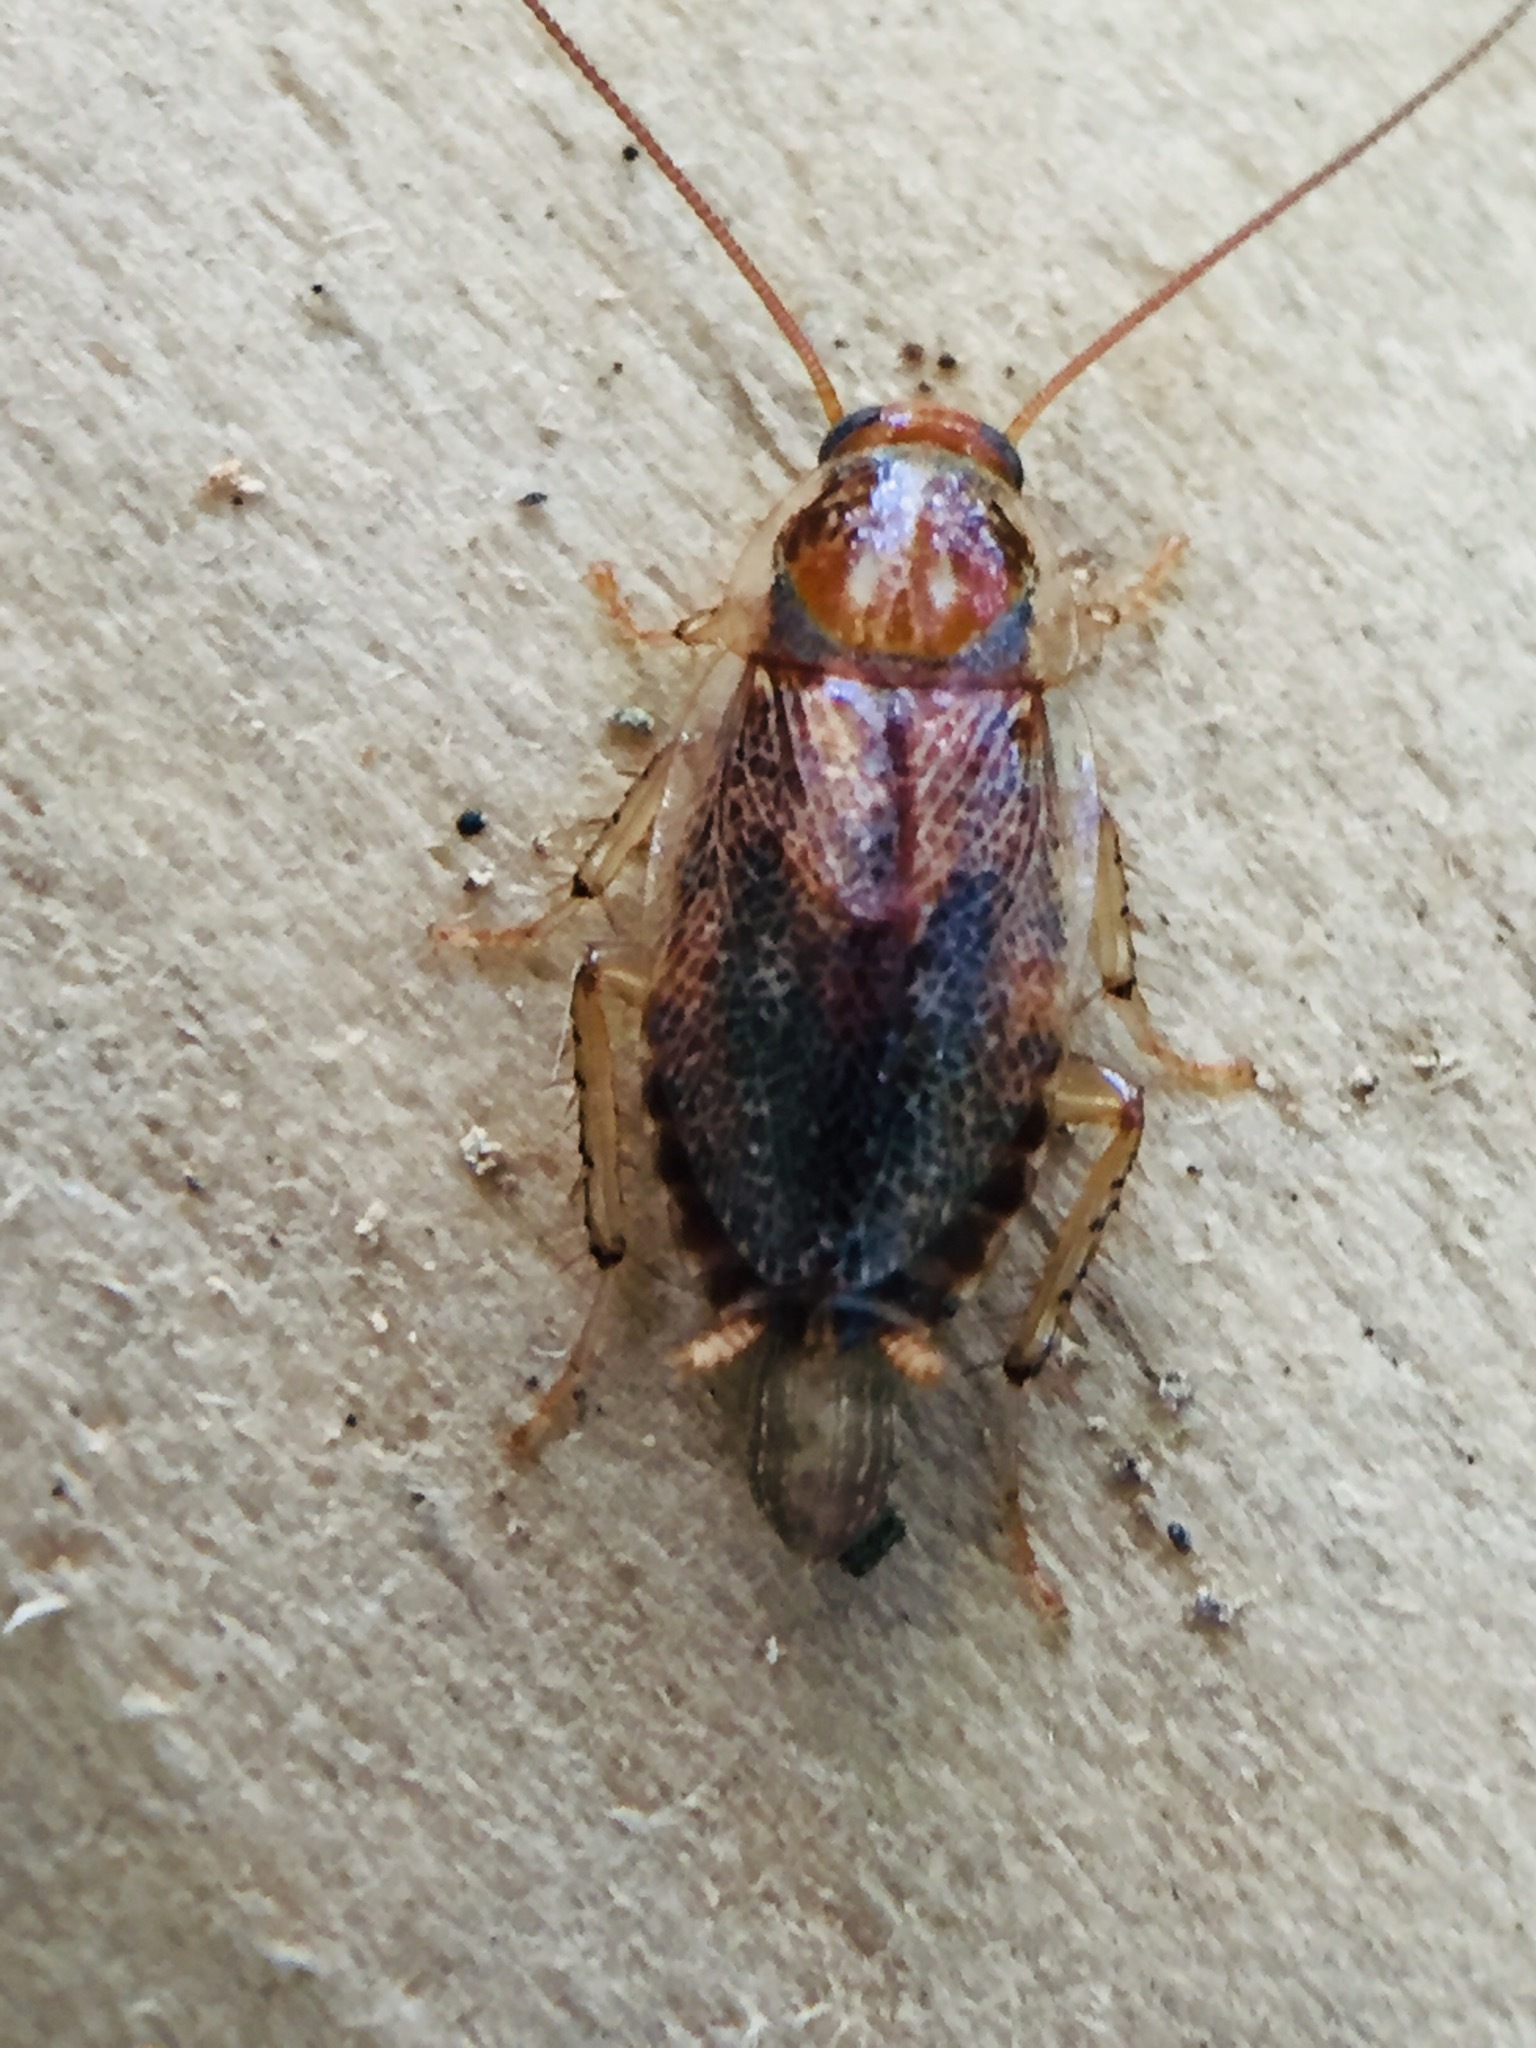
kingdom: Animalia
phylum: Arthropoda
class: Insecta
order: Blattodea
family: Ectobiidae
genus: Ornatiblatta
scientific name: Ornatiblatta maori
